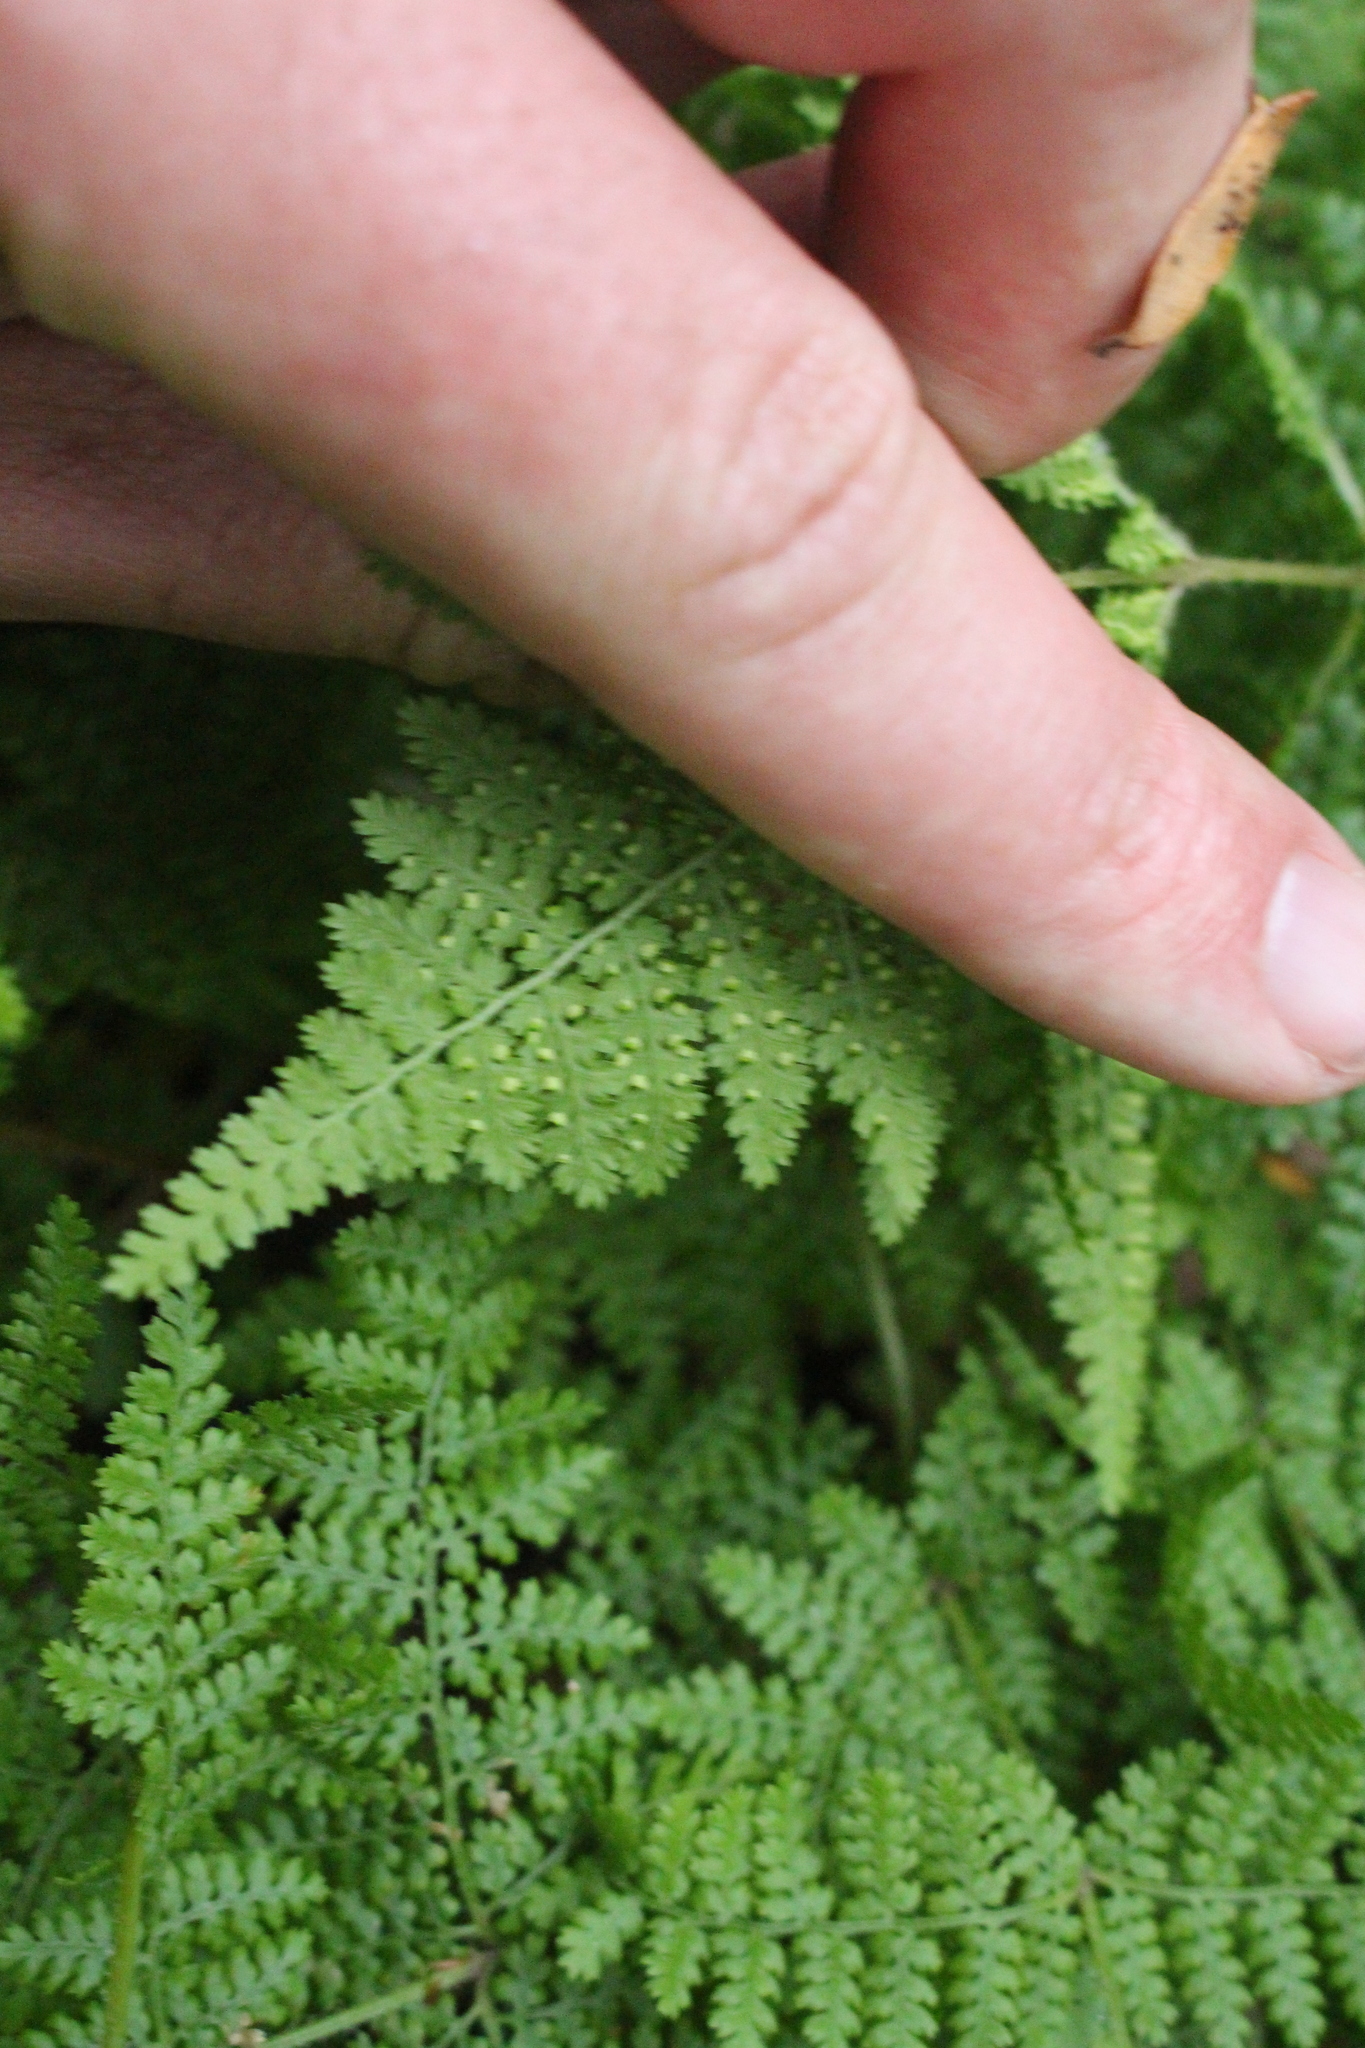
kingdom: Plantae
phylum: Tracheophyta
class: Polypodiopsida
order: Polypodiales
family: Dennstaedtiaceae
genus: Hypolepis
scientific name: Hypolepis millefolium
